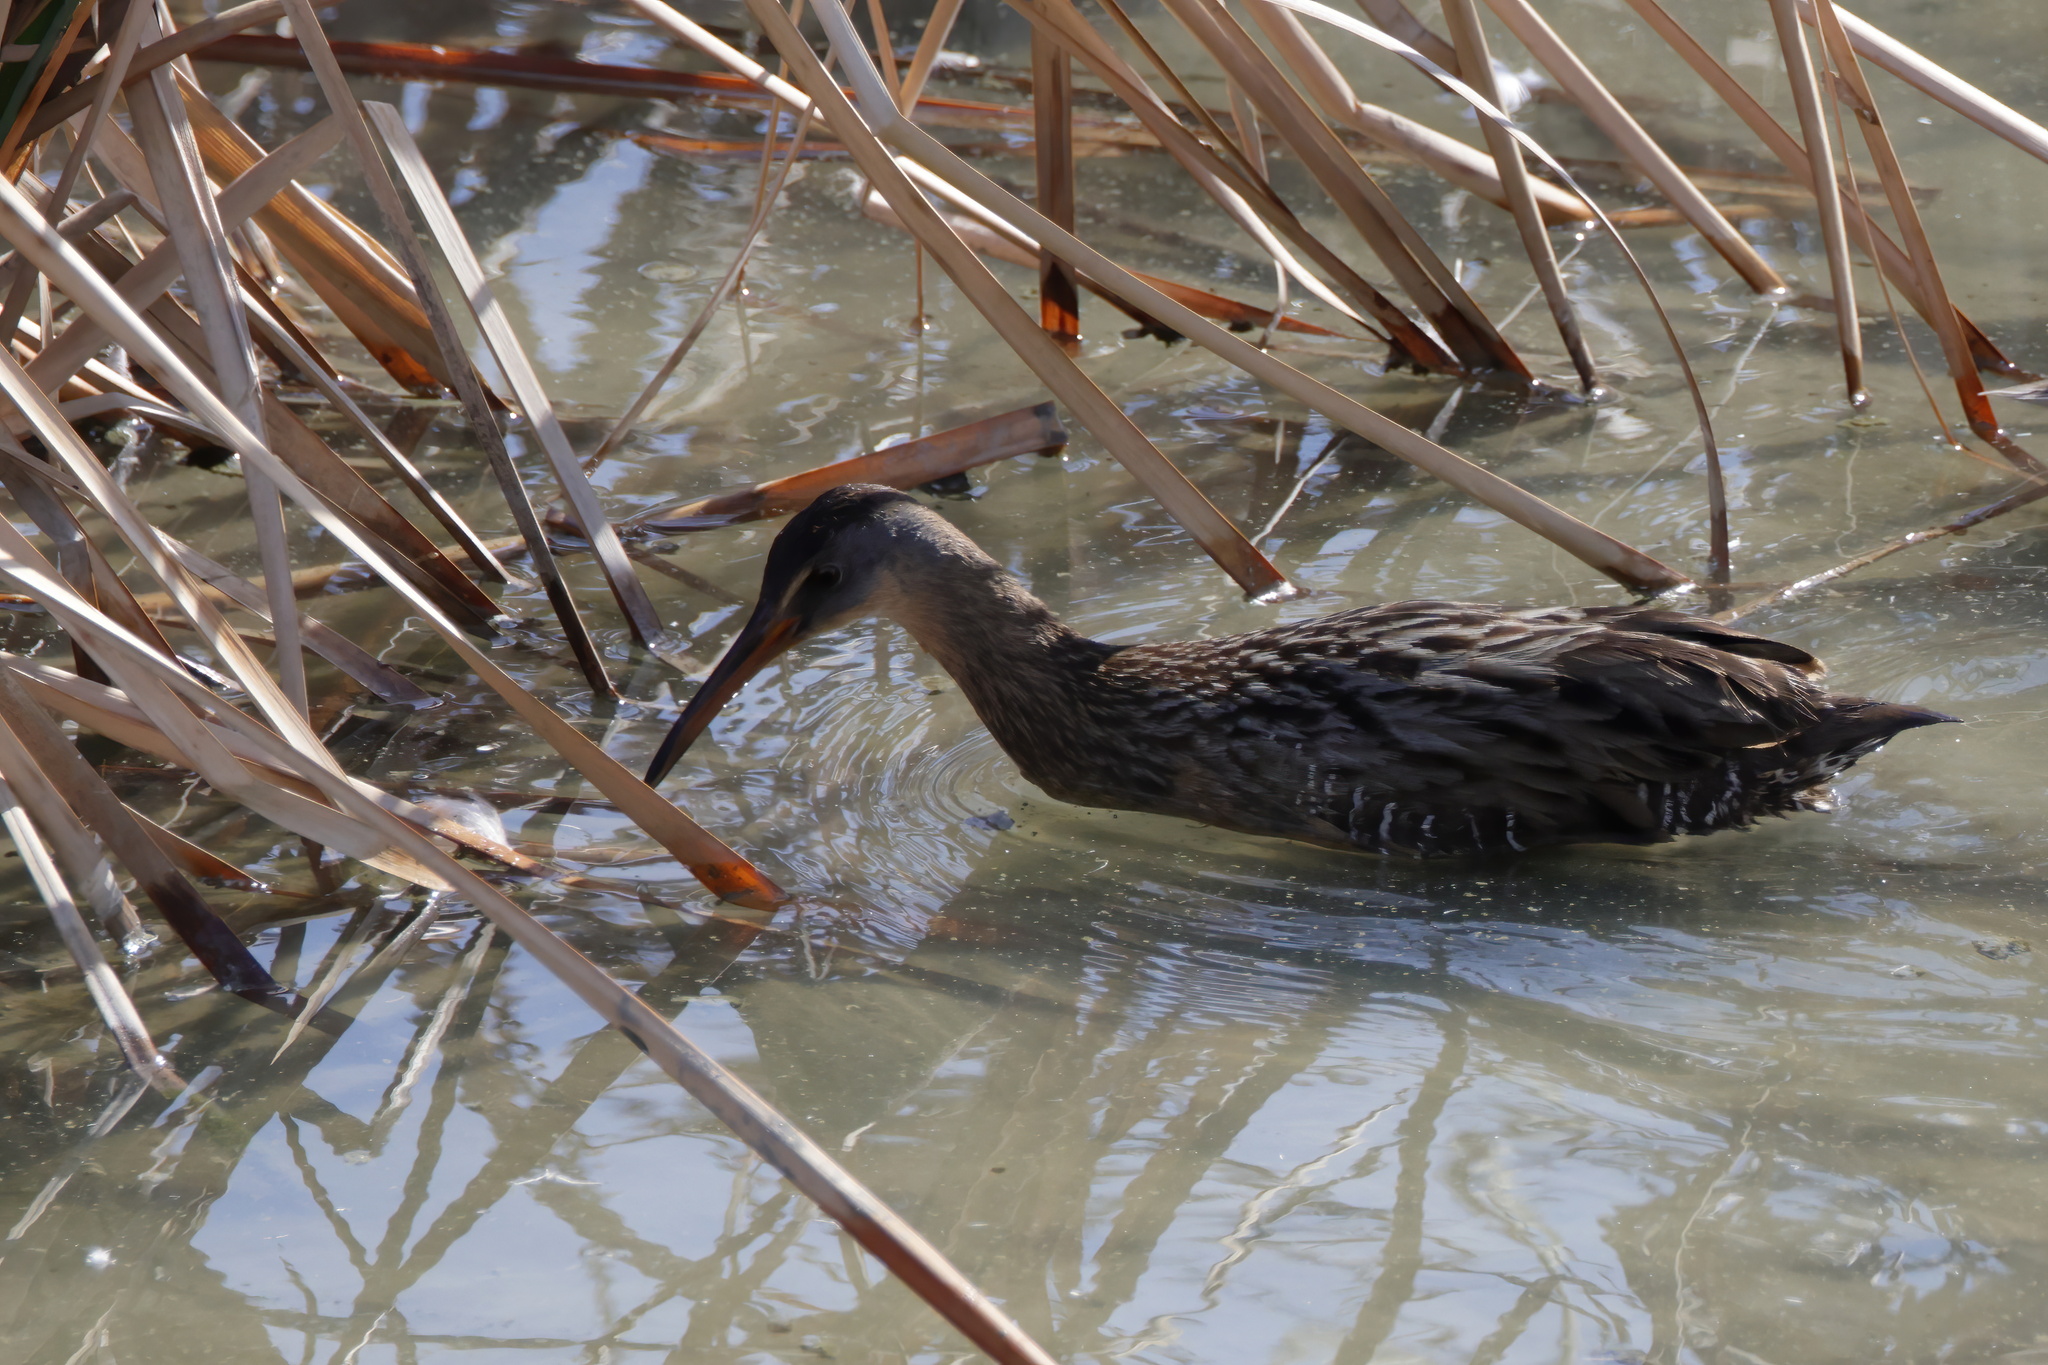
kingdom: Animalia
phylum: Chordata
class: Aves
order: Gruiformes
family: Rallidae
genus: Rallus
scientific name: Rallus crepitans
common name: Clapper rail
